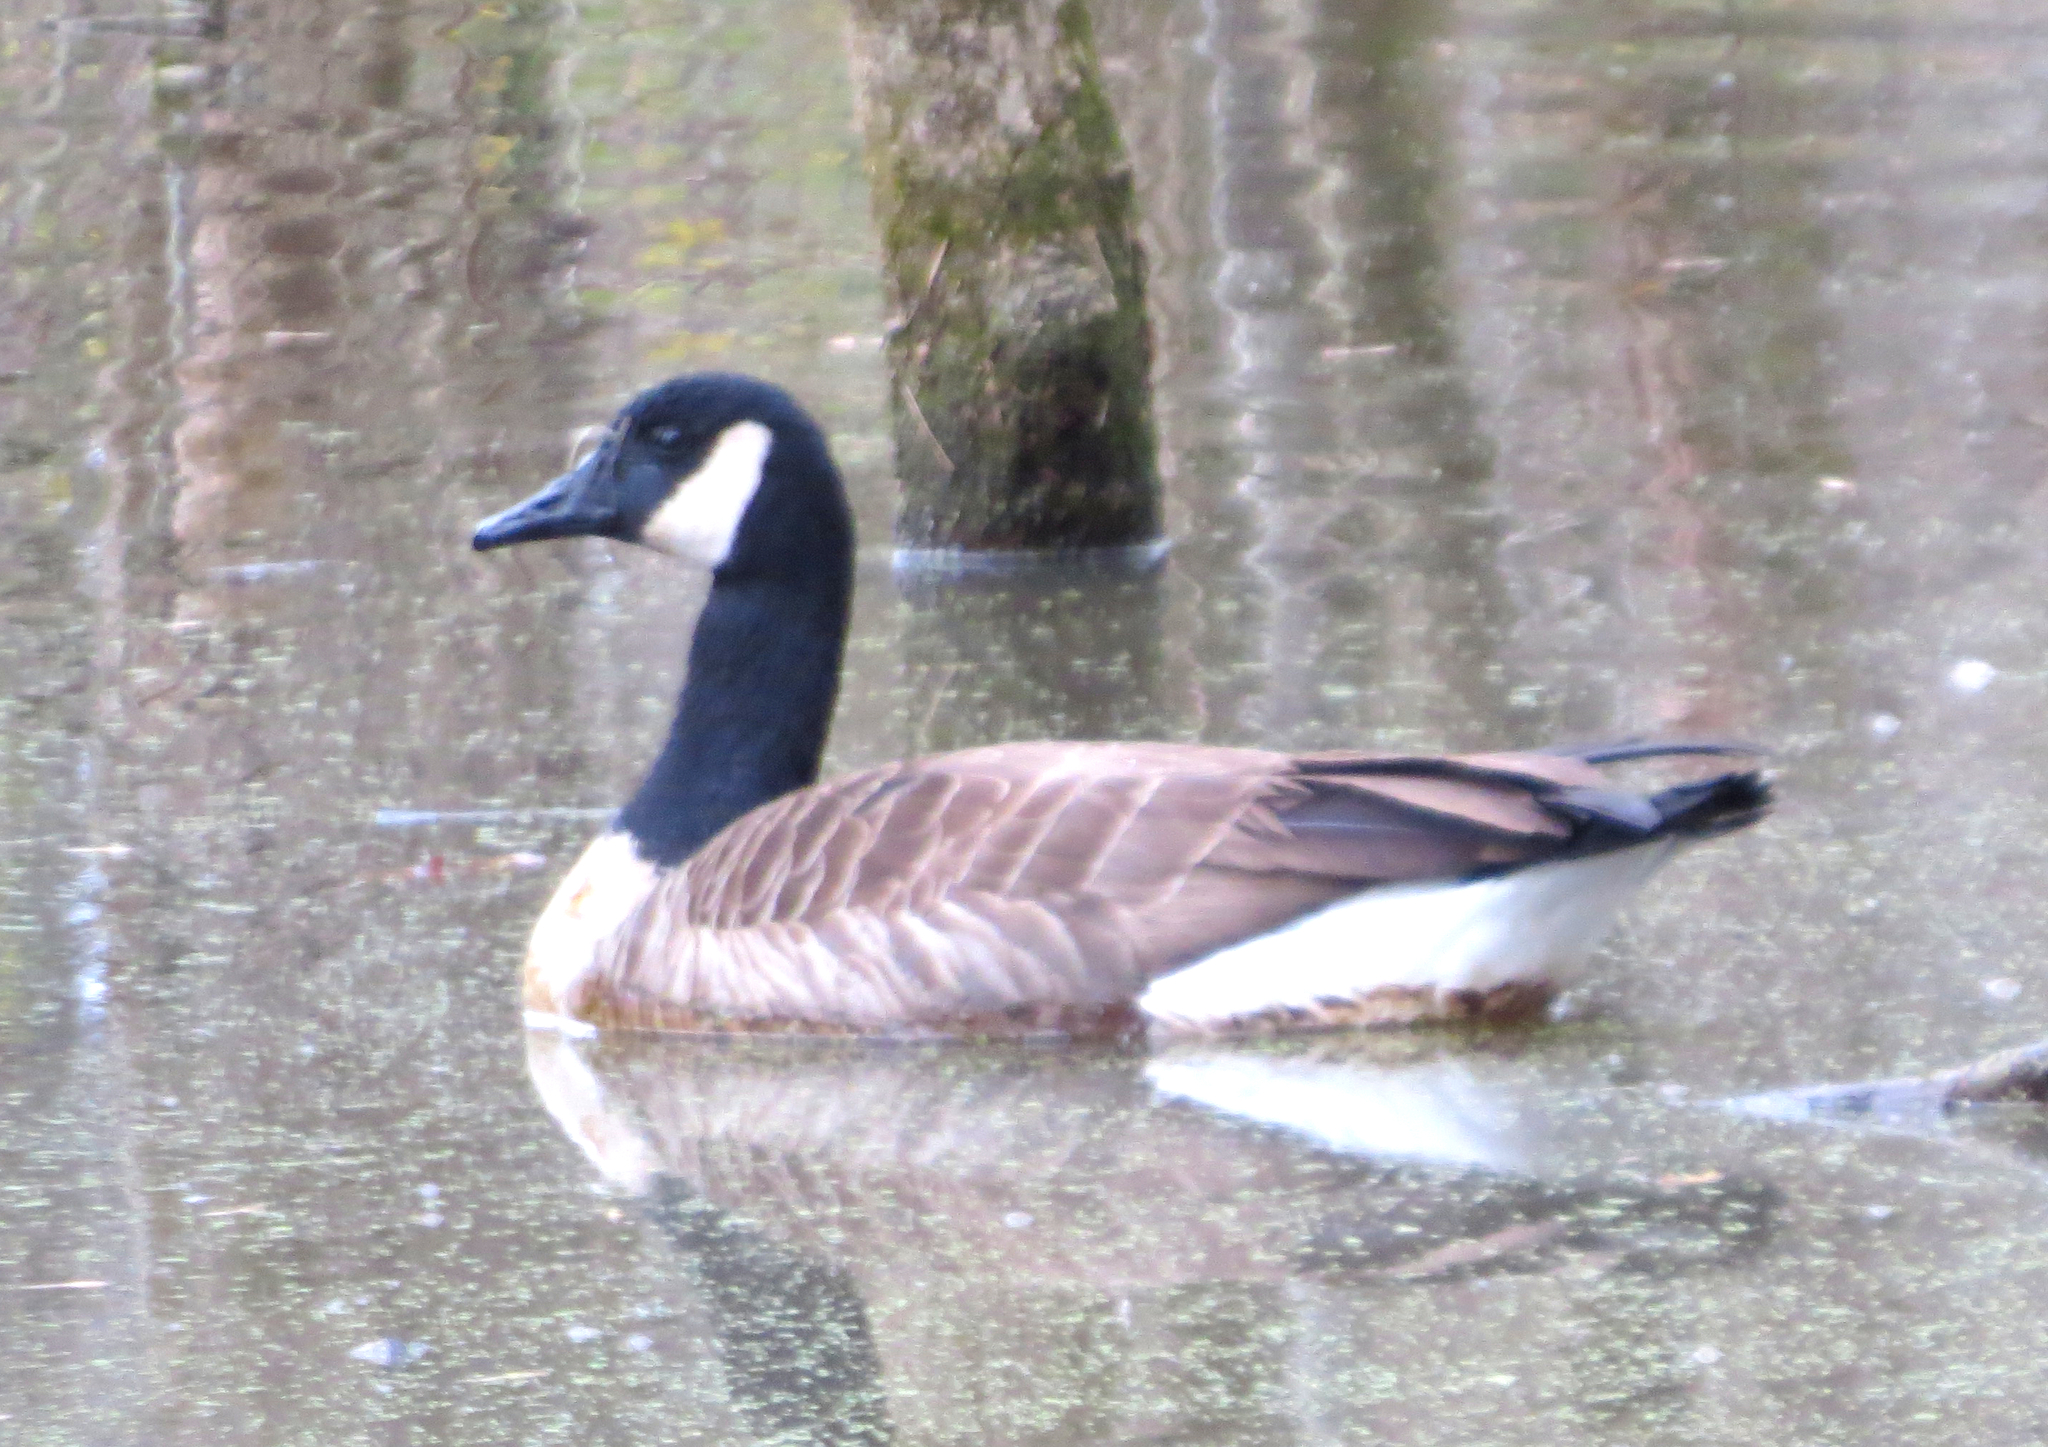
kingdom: Animalia
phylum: Chordata
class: Aves
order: Anseriformes
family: Anatidae
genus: Branta
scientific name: Branta canadensis
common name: Canada goose
